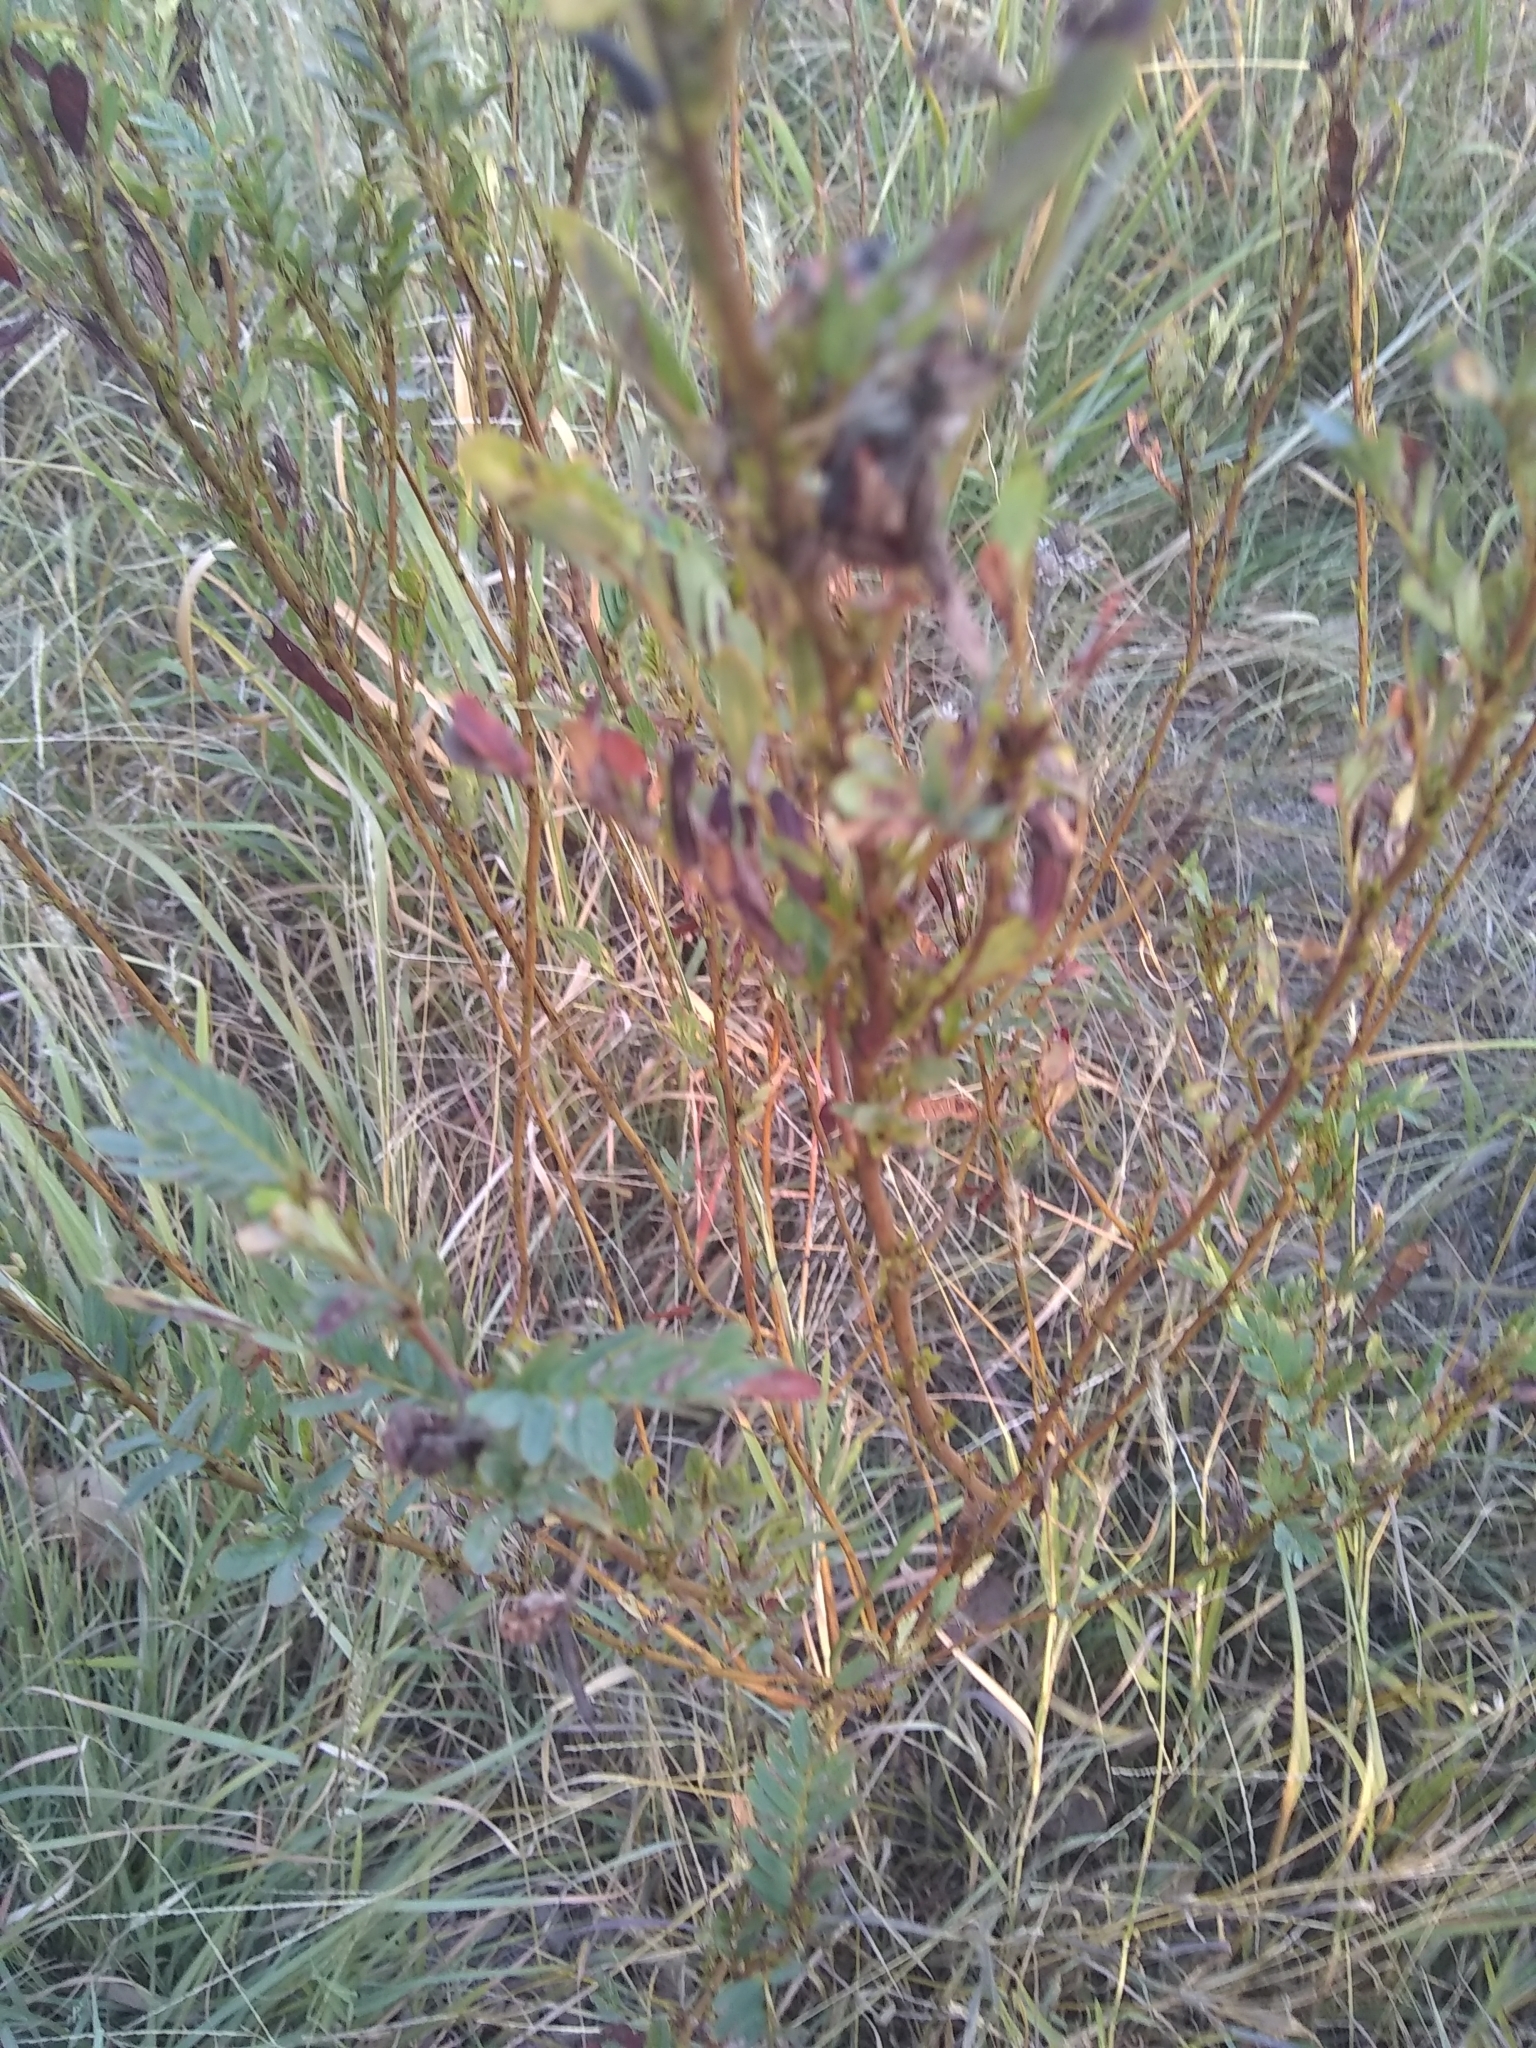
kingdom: Plantae
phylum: Tracheophyta
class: Magnoliopsida
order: Fabales
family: Fabaceae
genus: Chamaecrista
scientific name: Chamaecrista fasciculata
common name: Golden cassia
